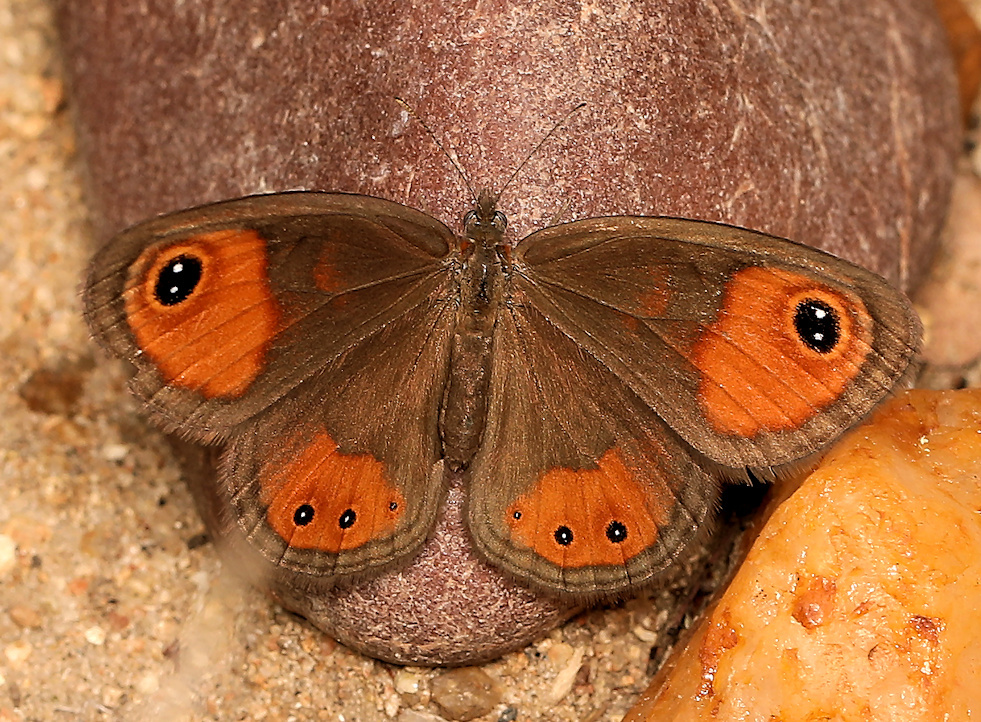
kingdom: Animalia
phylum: Arthropoda
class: Insecta
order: Lepidoptera
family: Nymphalidae
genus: Coenyropsis
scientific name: Coenyropsis natalii
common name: Natal brown
